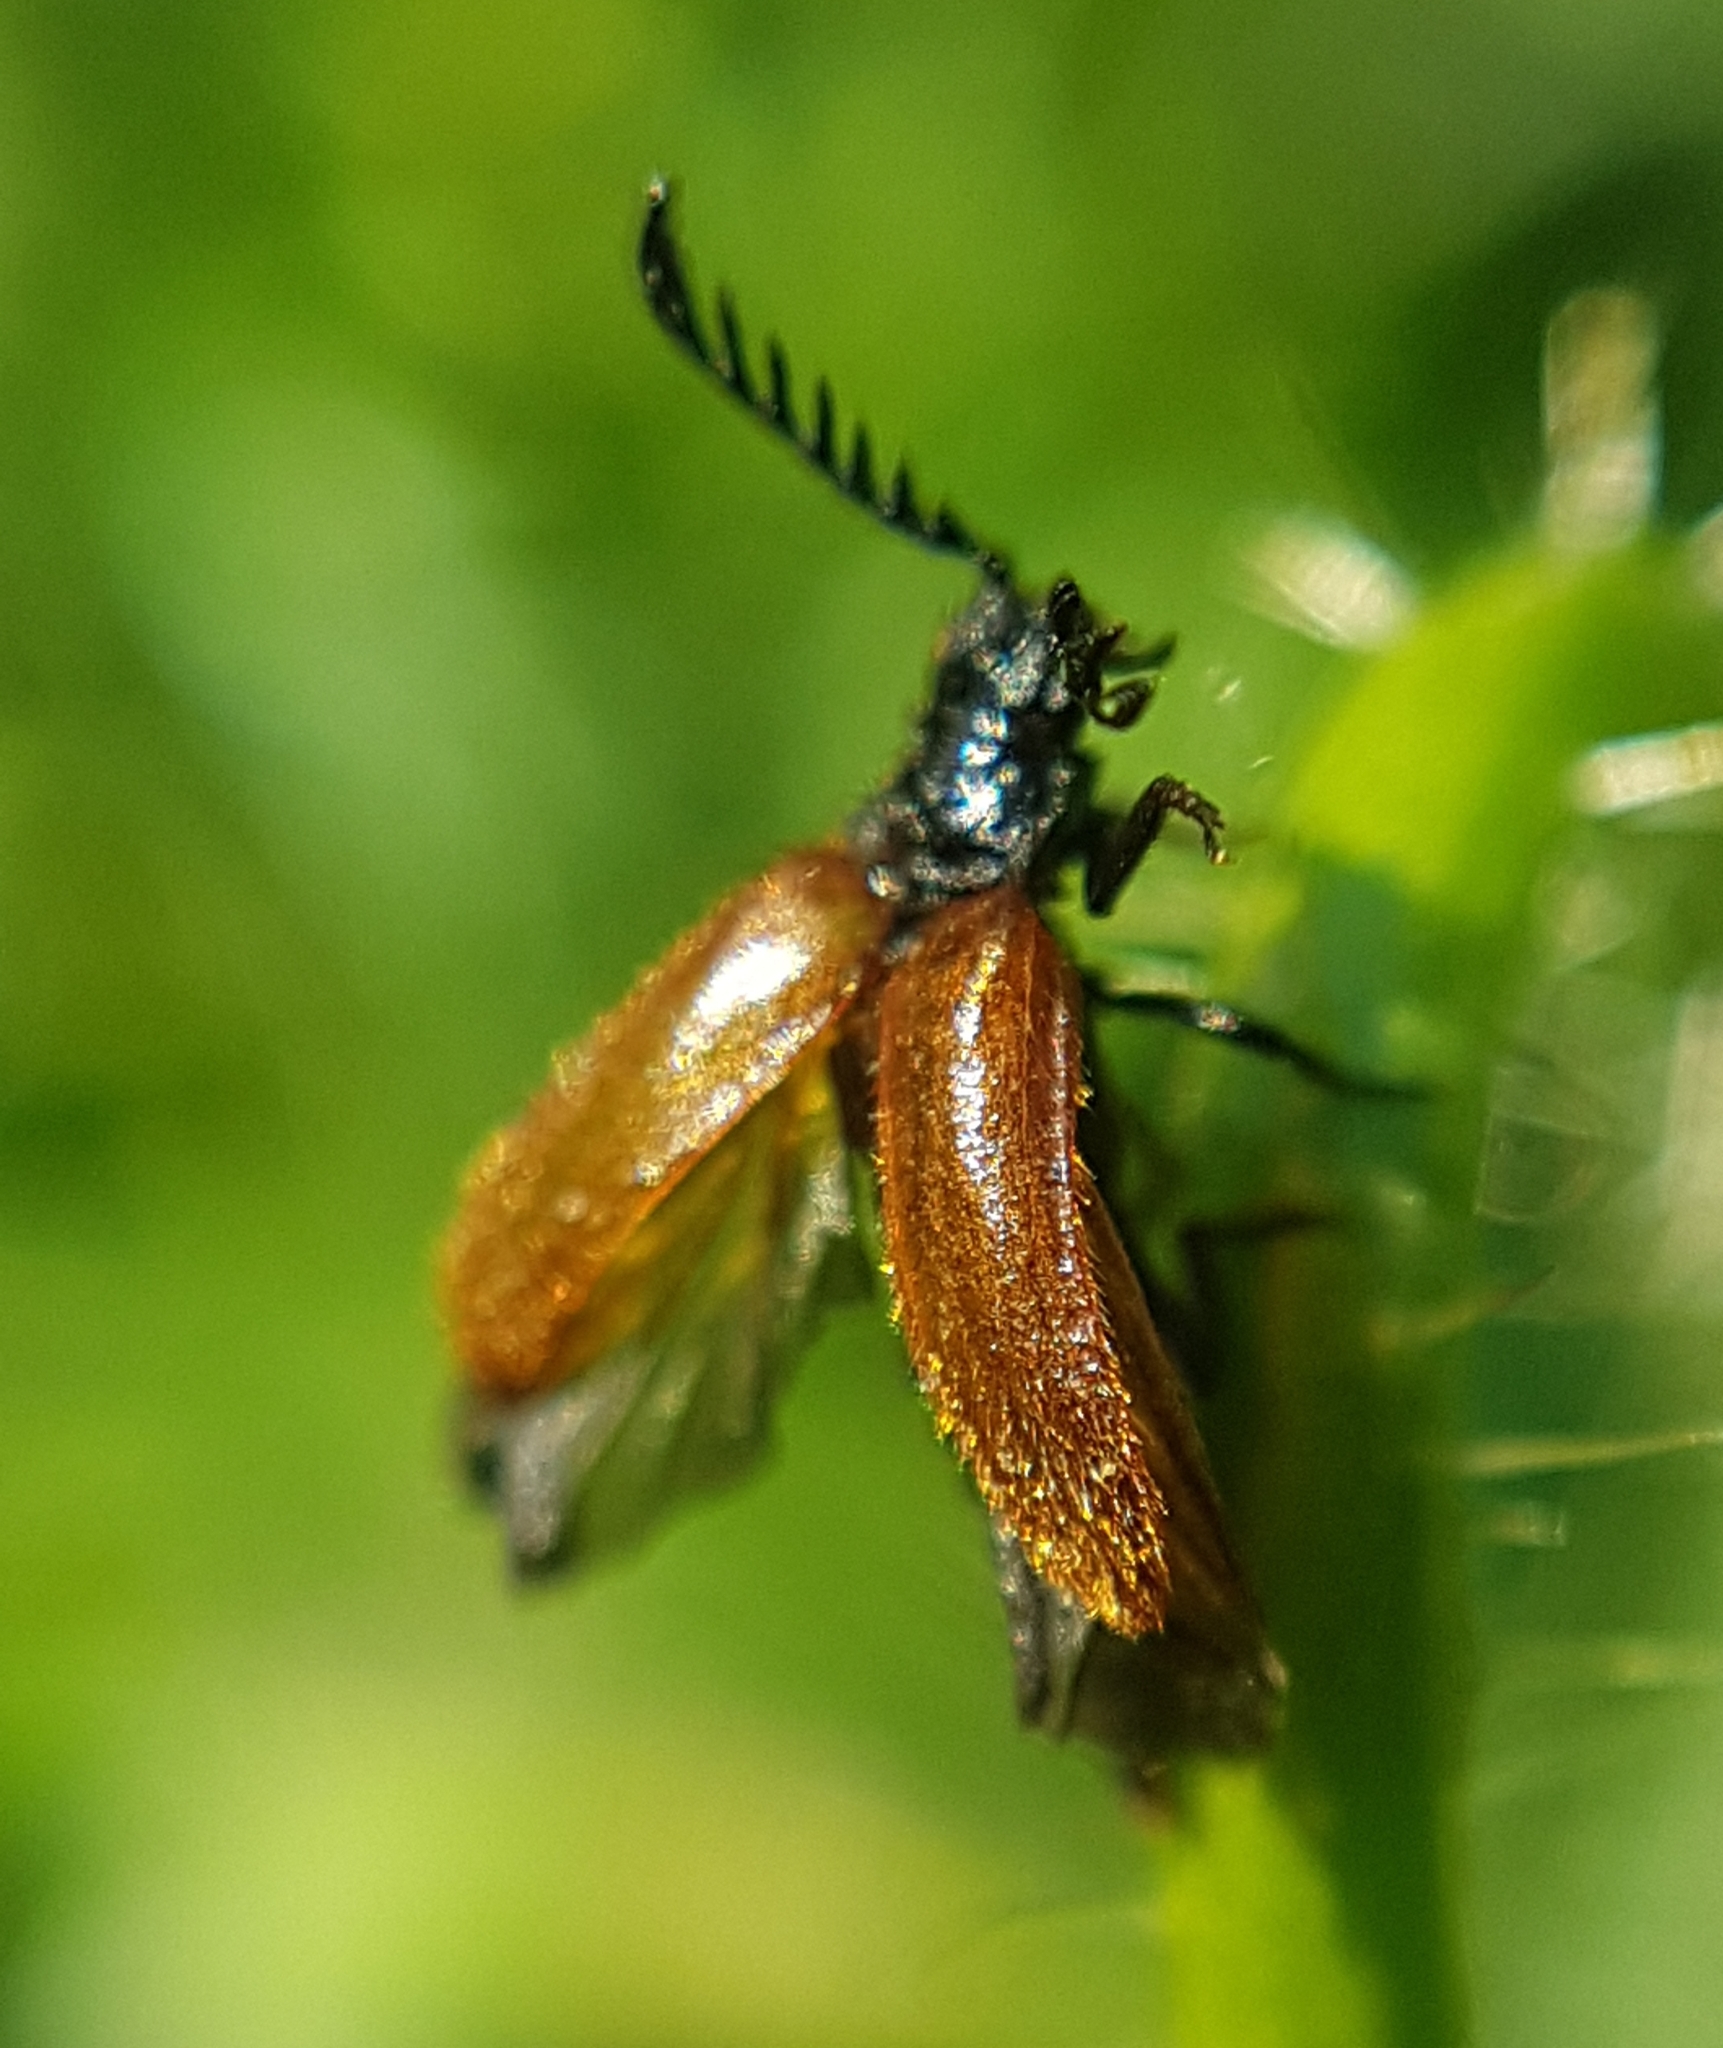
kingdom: Animalia
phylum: Arthropoda
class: Insecta
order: Coleoptera
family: Drilidae
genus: Drilus
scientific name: Drilus flavescens
